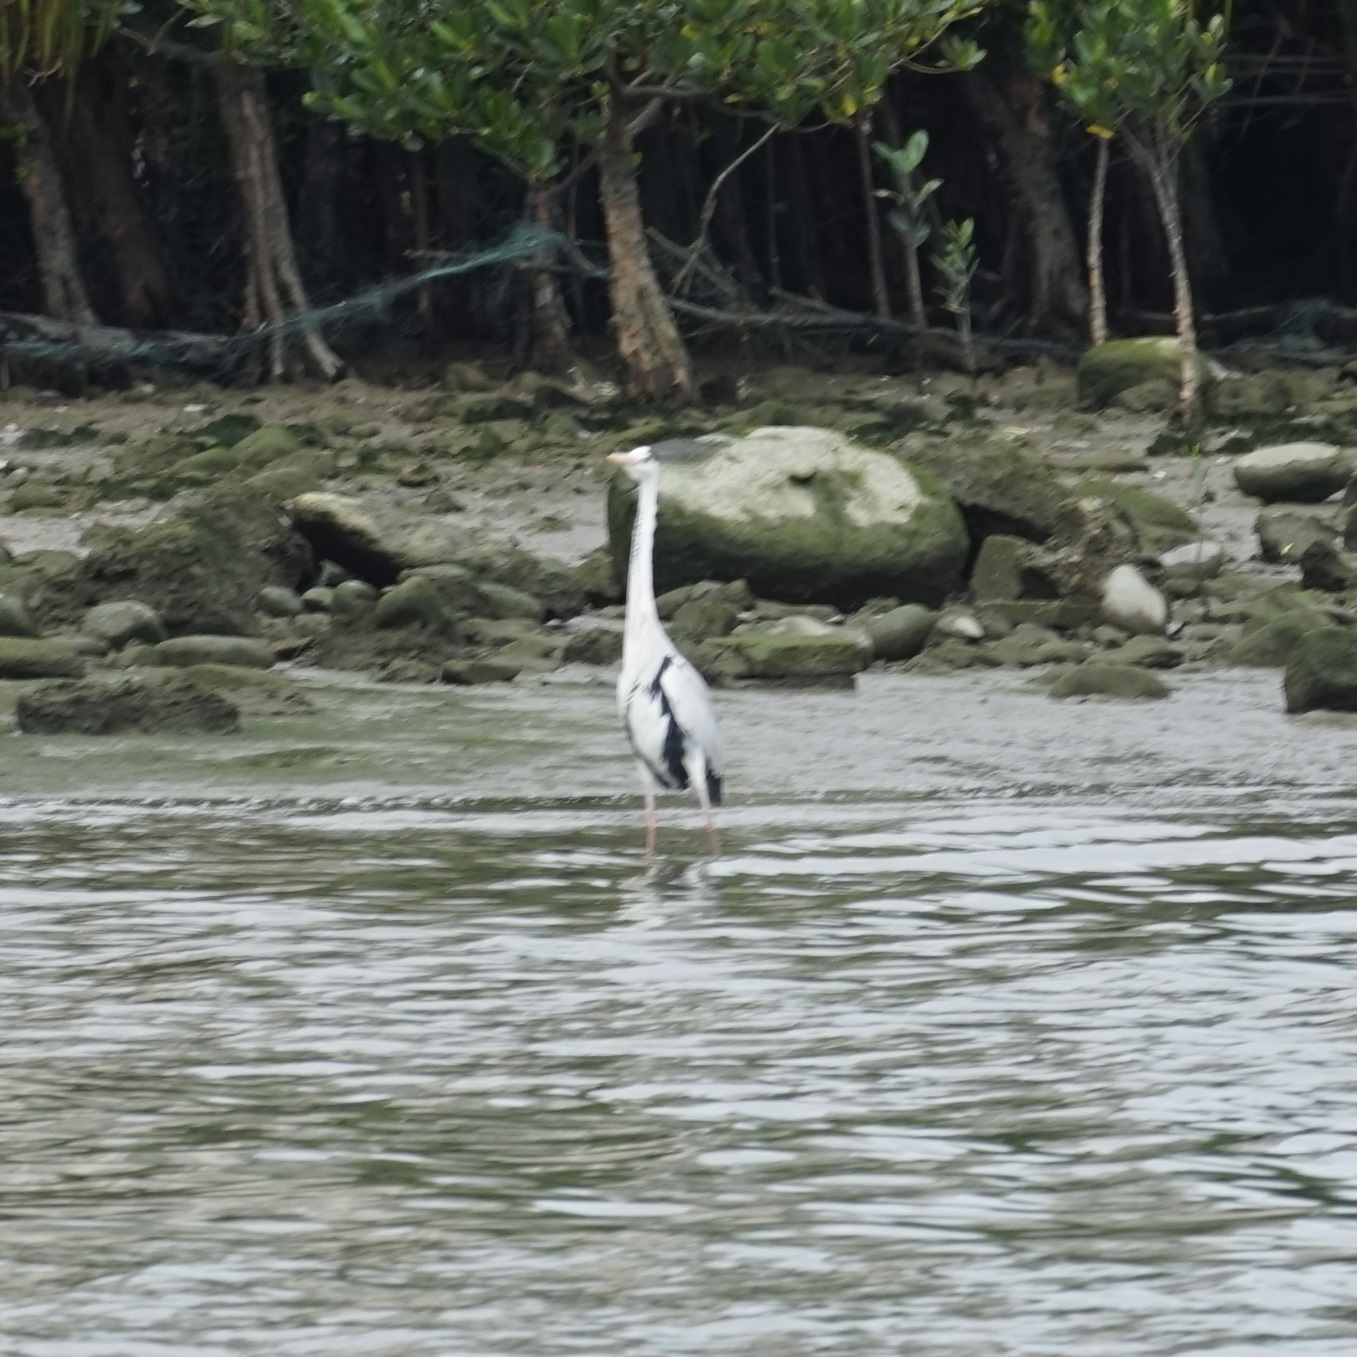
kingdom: Animalia
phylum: Chordata
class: Aves
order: Pelecaniformes
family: Ardeidae
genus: Ardea
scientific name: Ardea cinerea
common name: Grey heron
